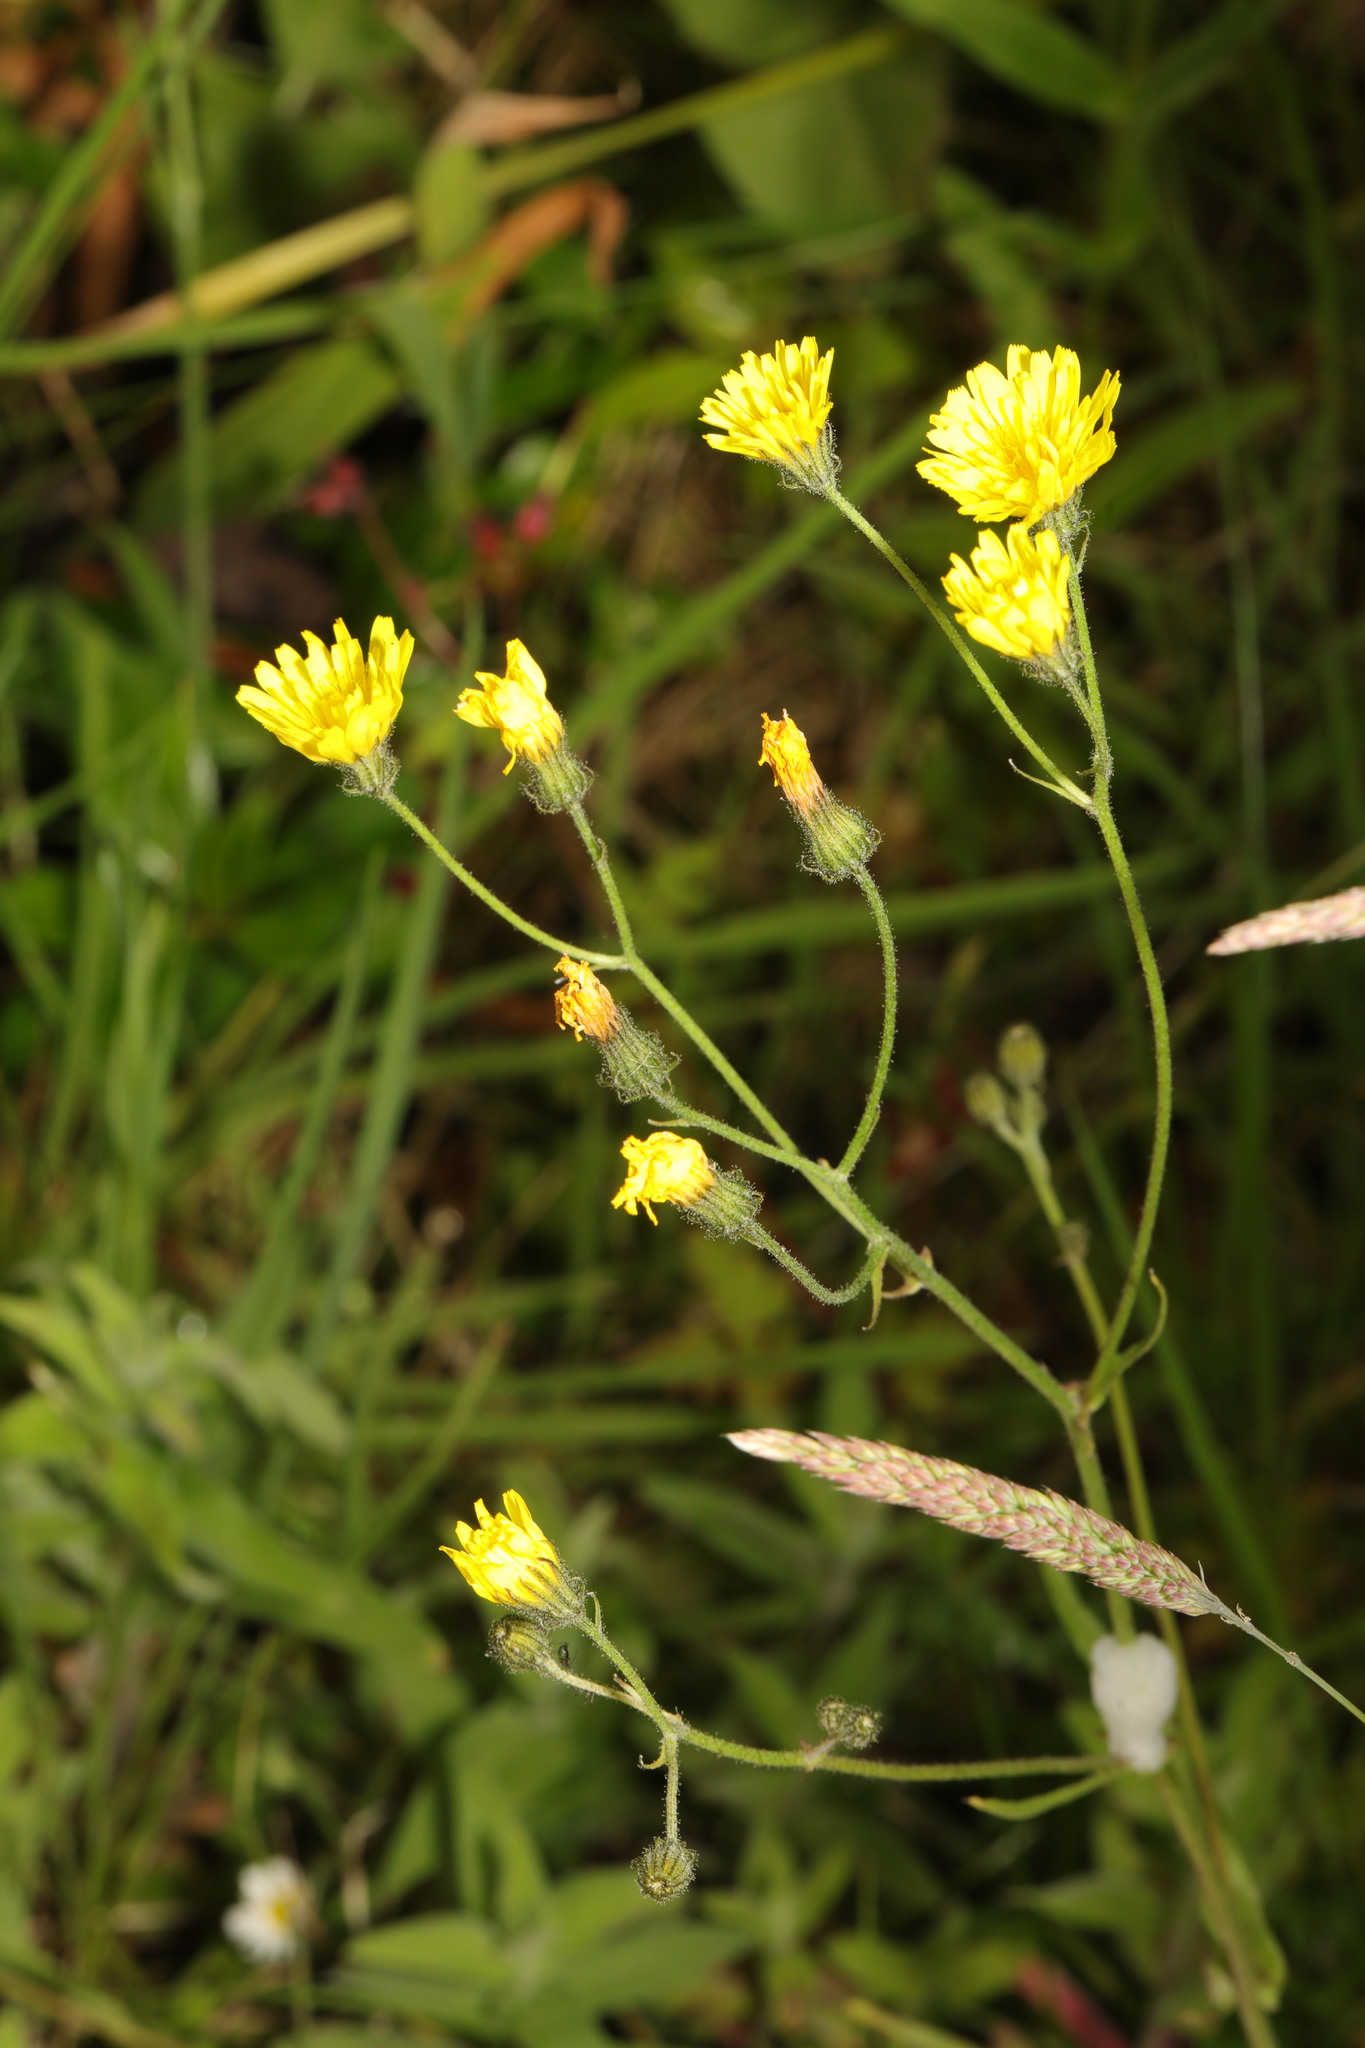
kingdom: Plantae
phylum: Tracheophyta
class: Magnoliopsida
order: Asterales
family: Asteraceae
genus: Crepis
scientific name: Crepis capillaris
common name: Smooth hawksbeard
